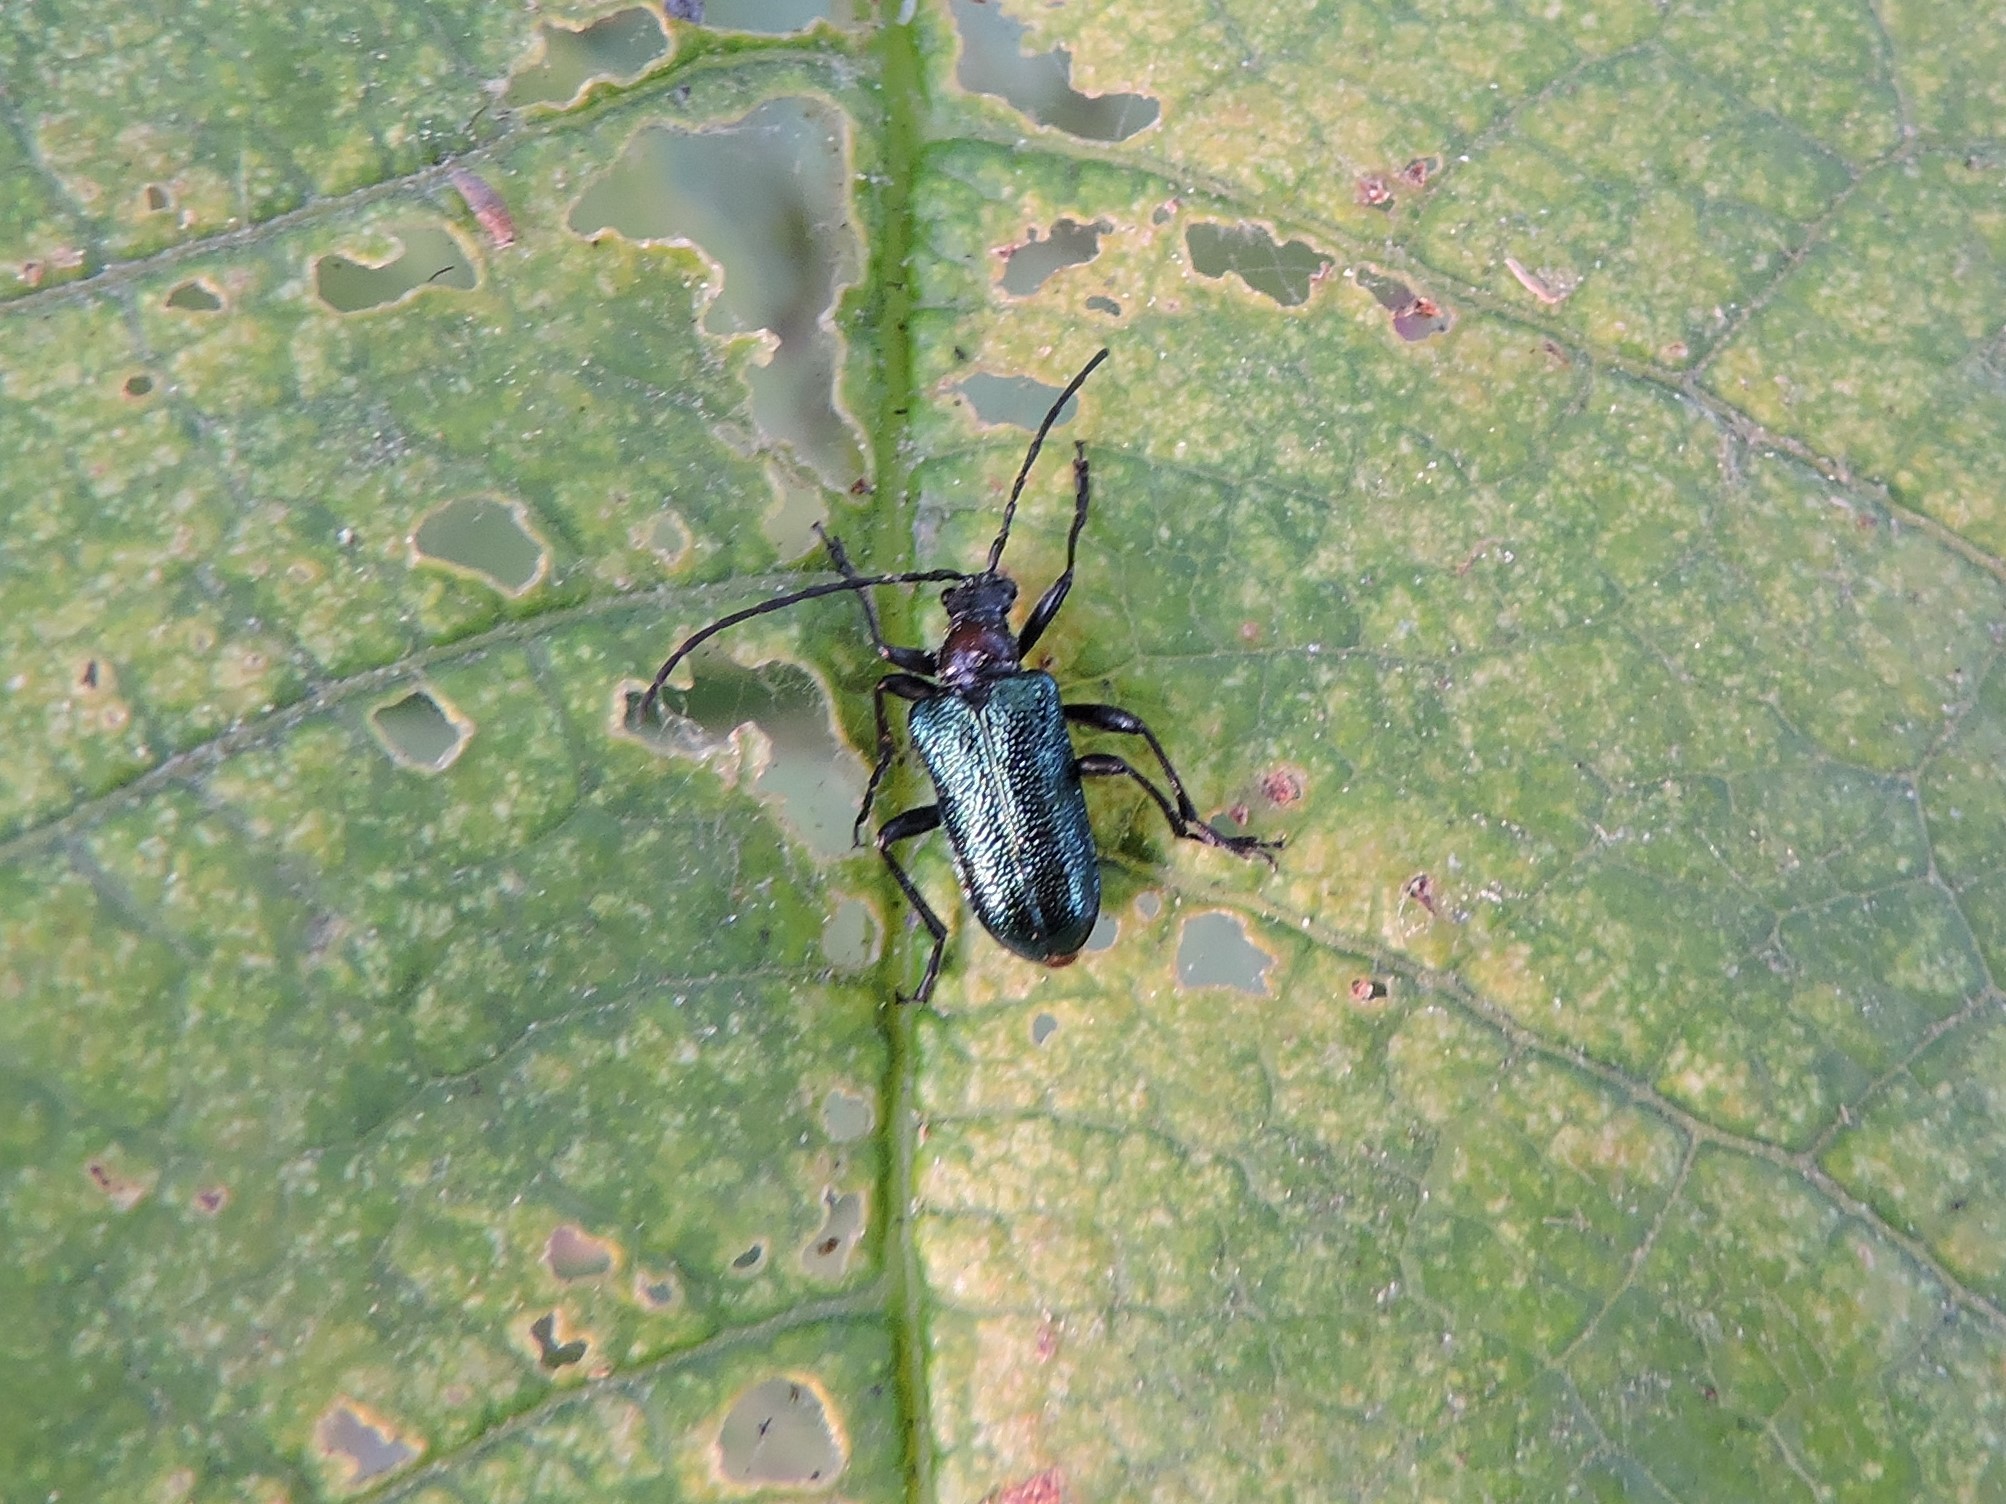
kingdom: Animalia
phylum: Arthropoda
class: Insecta
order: Coleoptera
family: Cerambycidae
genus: Gaurotes
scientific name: Gaurotes virginea
